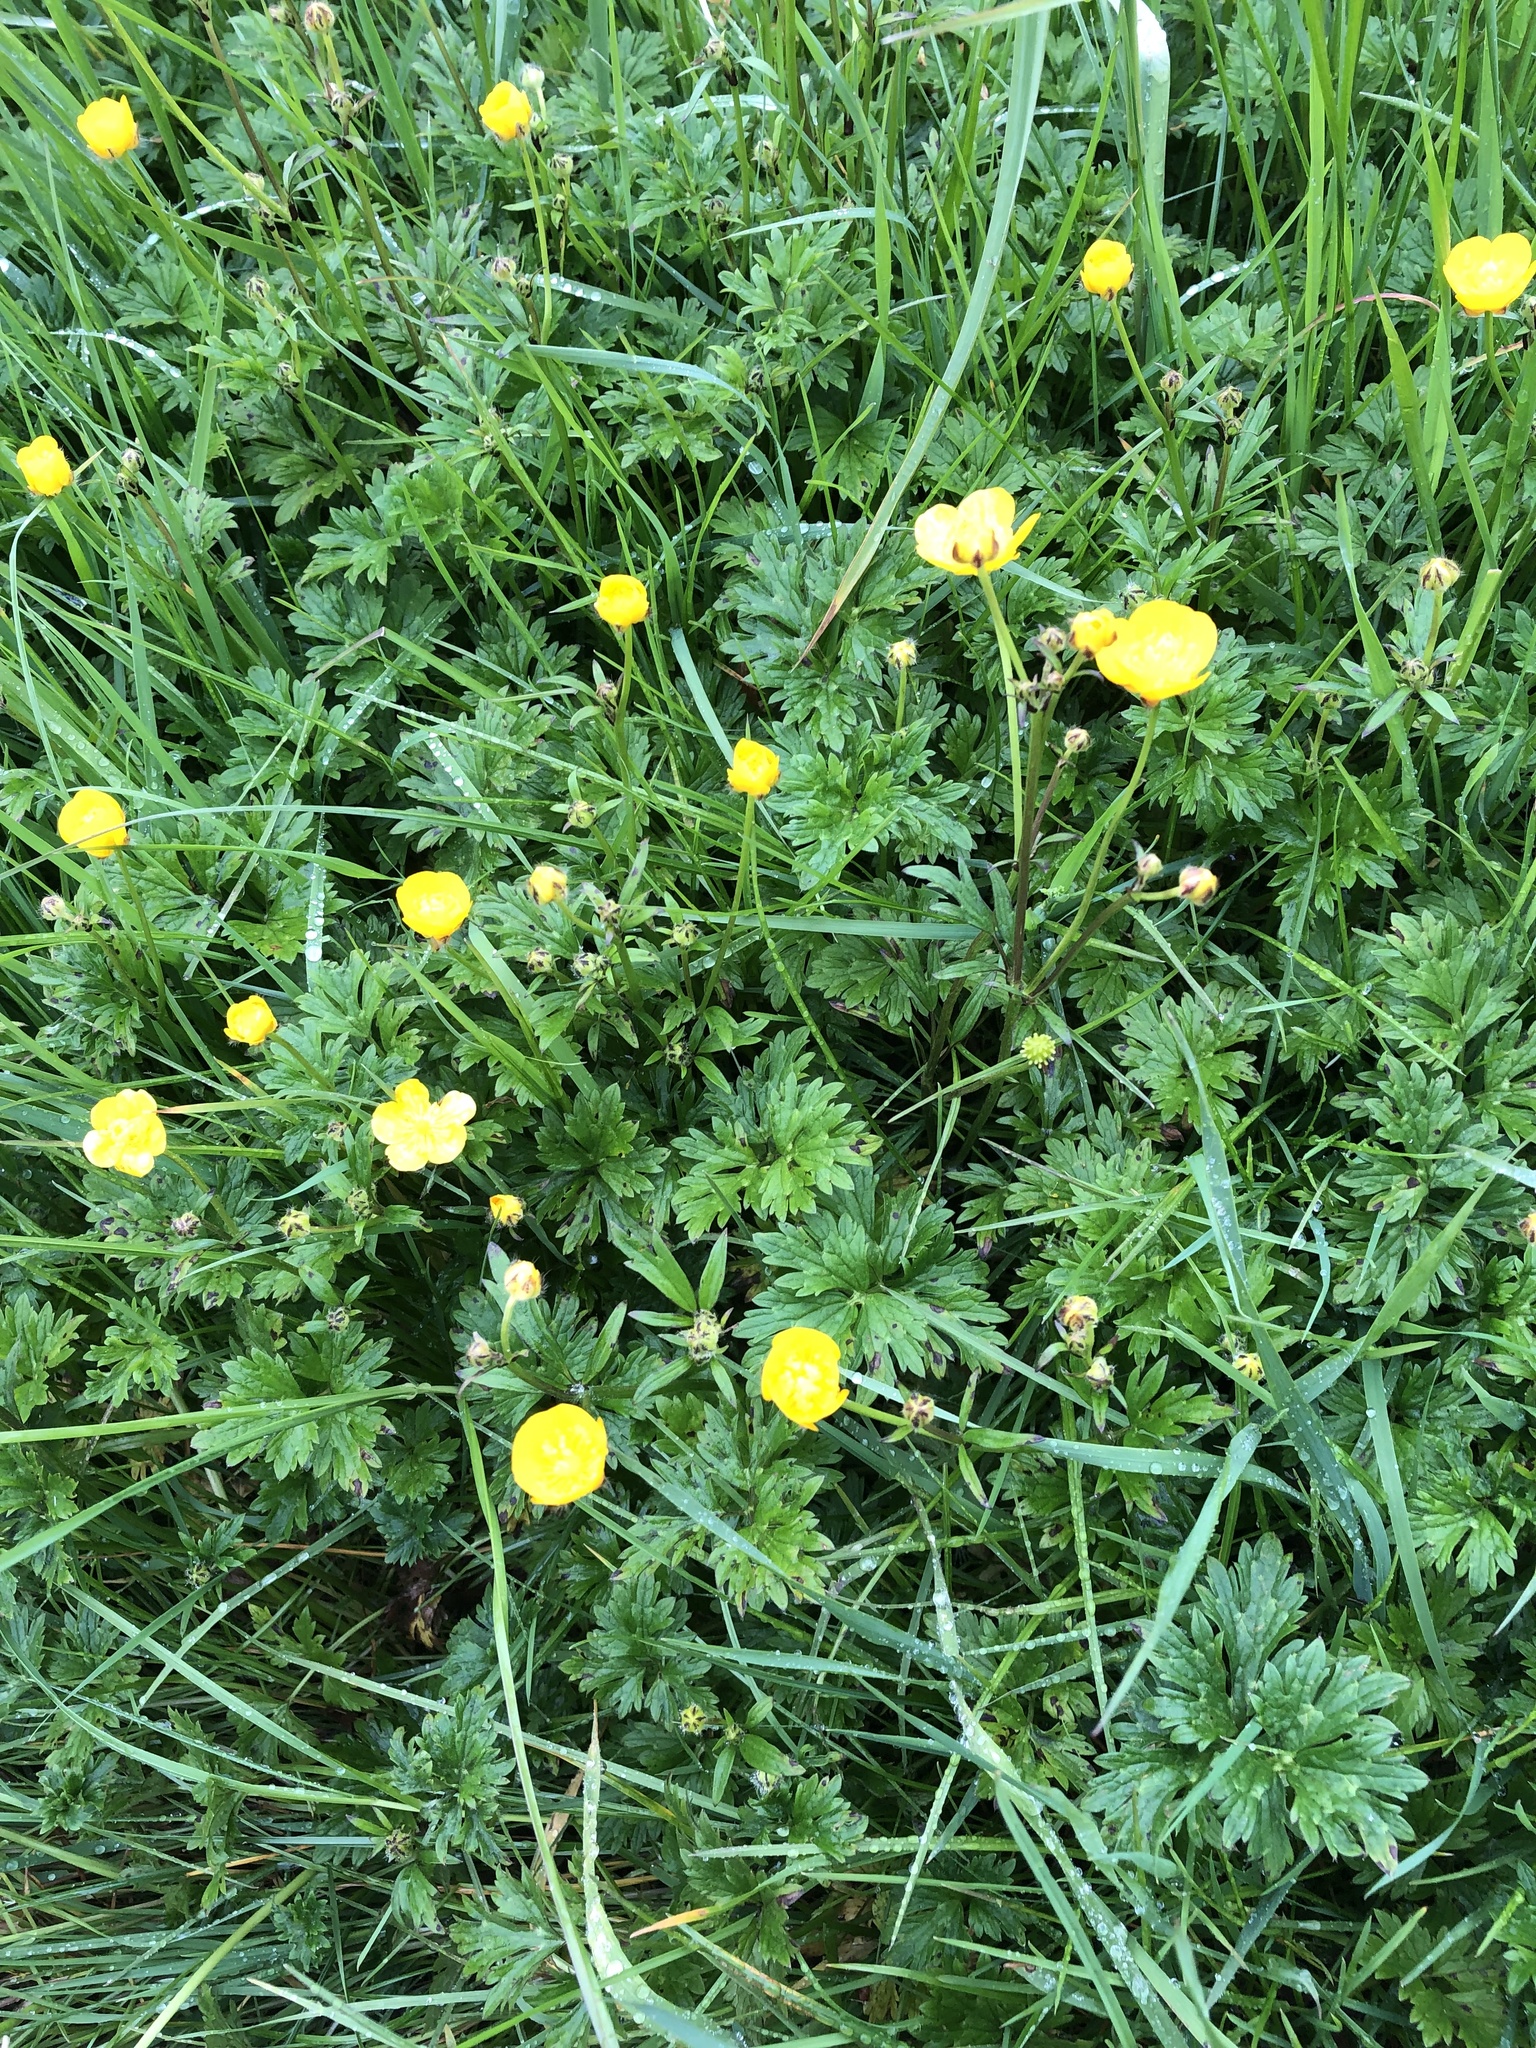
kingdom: Plantae
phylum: Tracheophyta
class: Magnoliopsida
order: Ranunculales
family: Ranunculaceae
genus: Ranunculus
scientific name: Ranunculus repens
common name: Creeping buttercup
